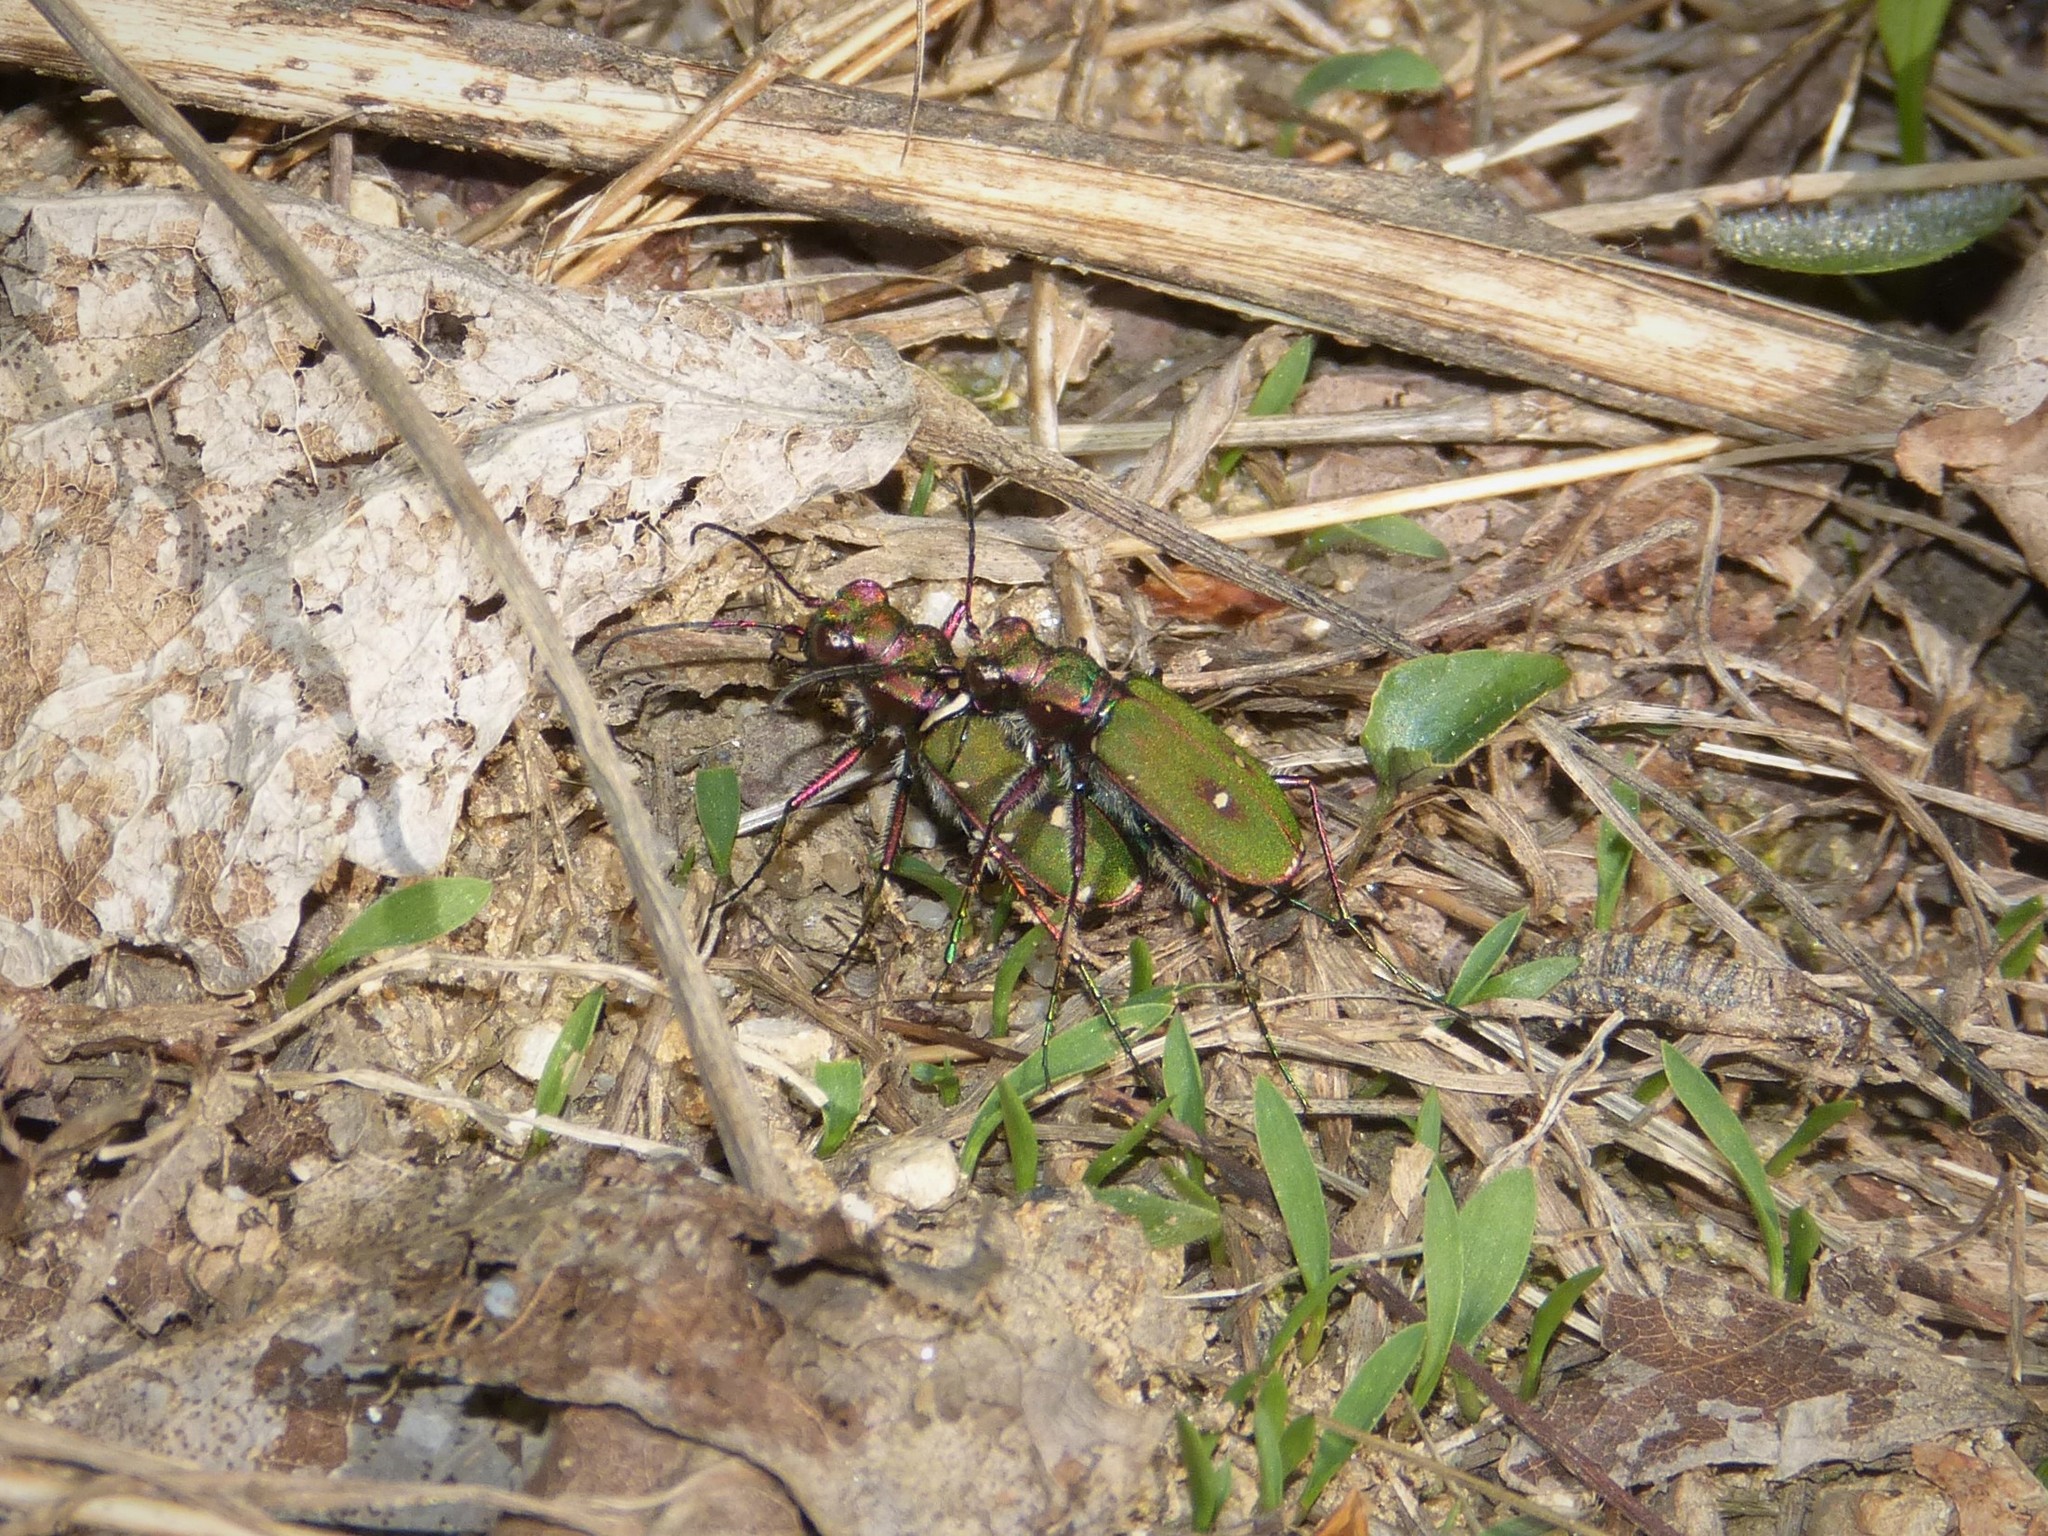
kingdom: Animalia
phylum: Arthropoda
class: Insecta
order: Coleoptera
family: Carabidae
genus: Cicindela
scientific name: Cicindela campestris
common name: Common tiger beetle
